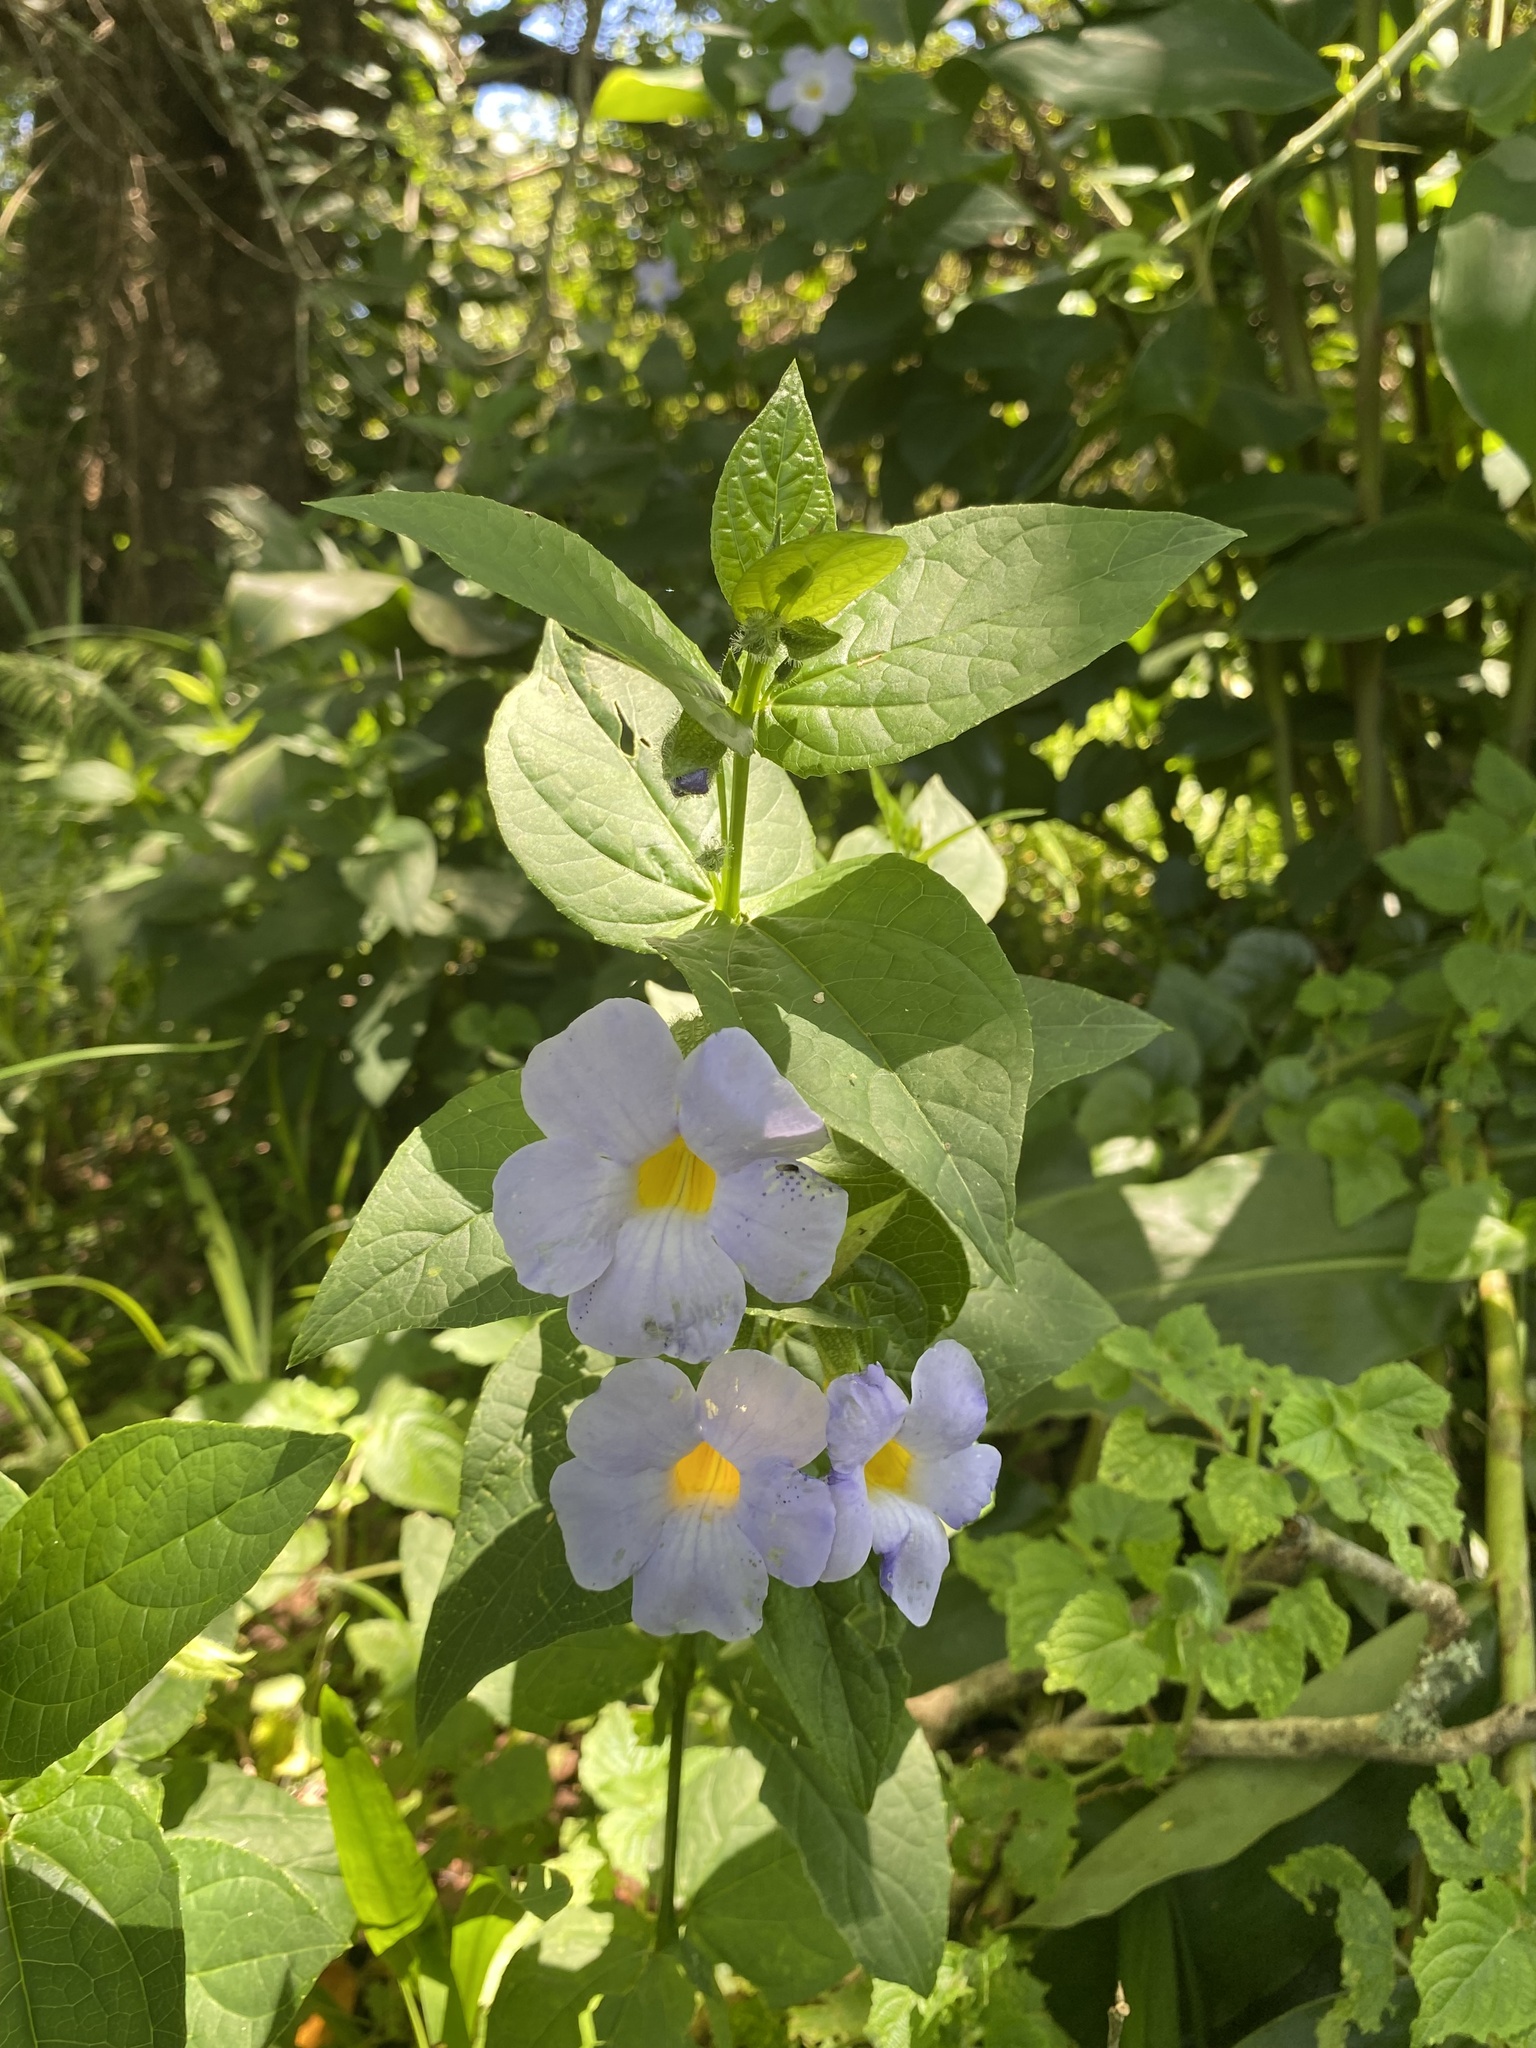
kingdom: Plantae
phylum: Tracheophyta
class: Magnoliopsida
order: Lamiales
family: Acanthaceae
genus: Thunbergia
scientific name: Thunbergia natalensis
